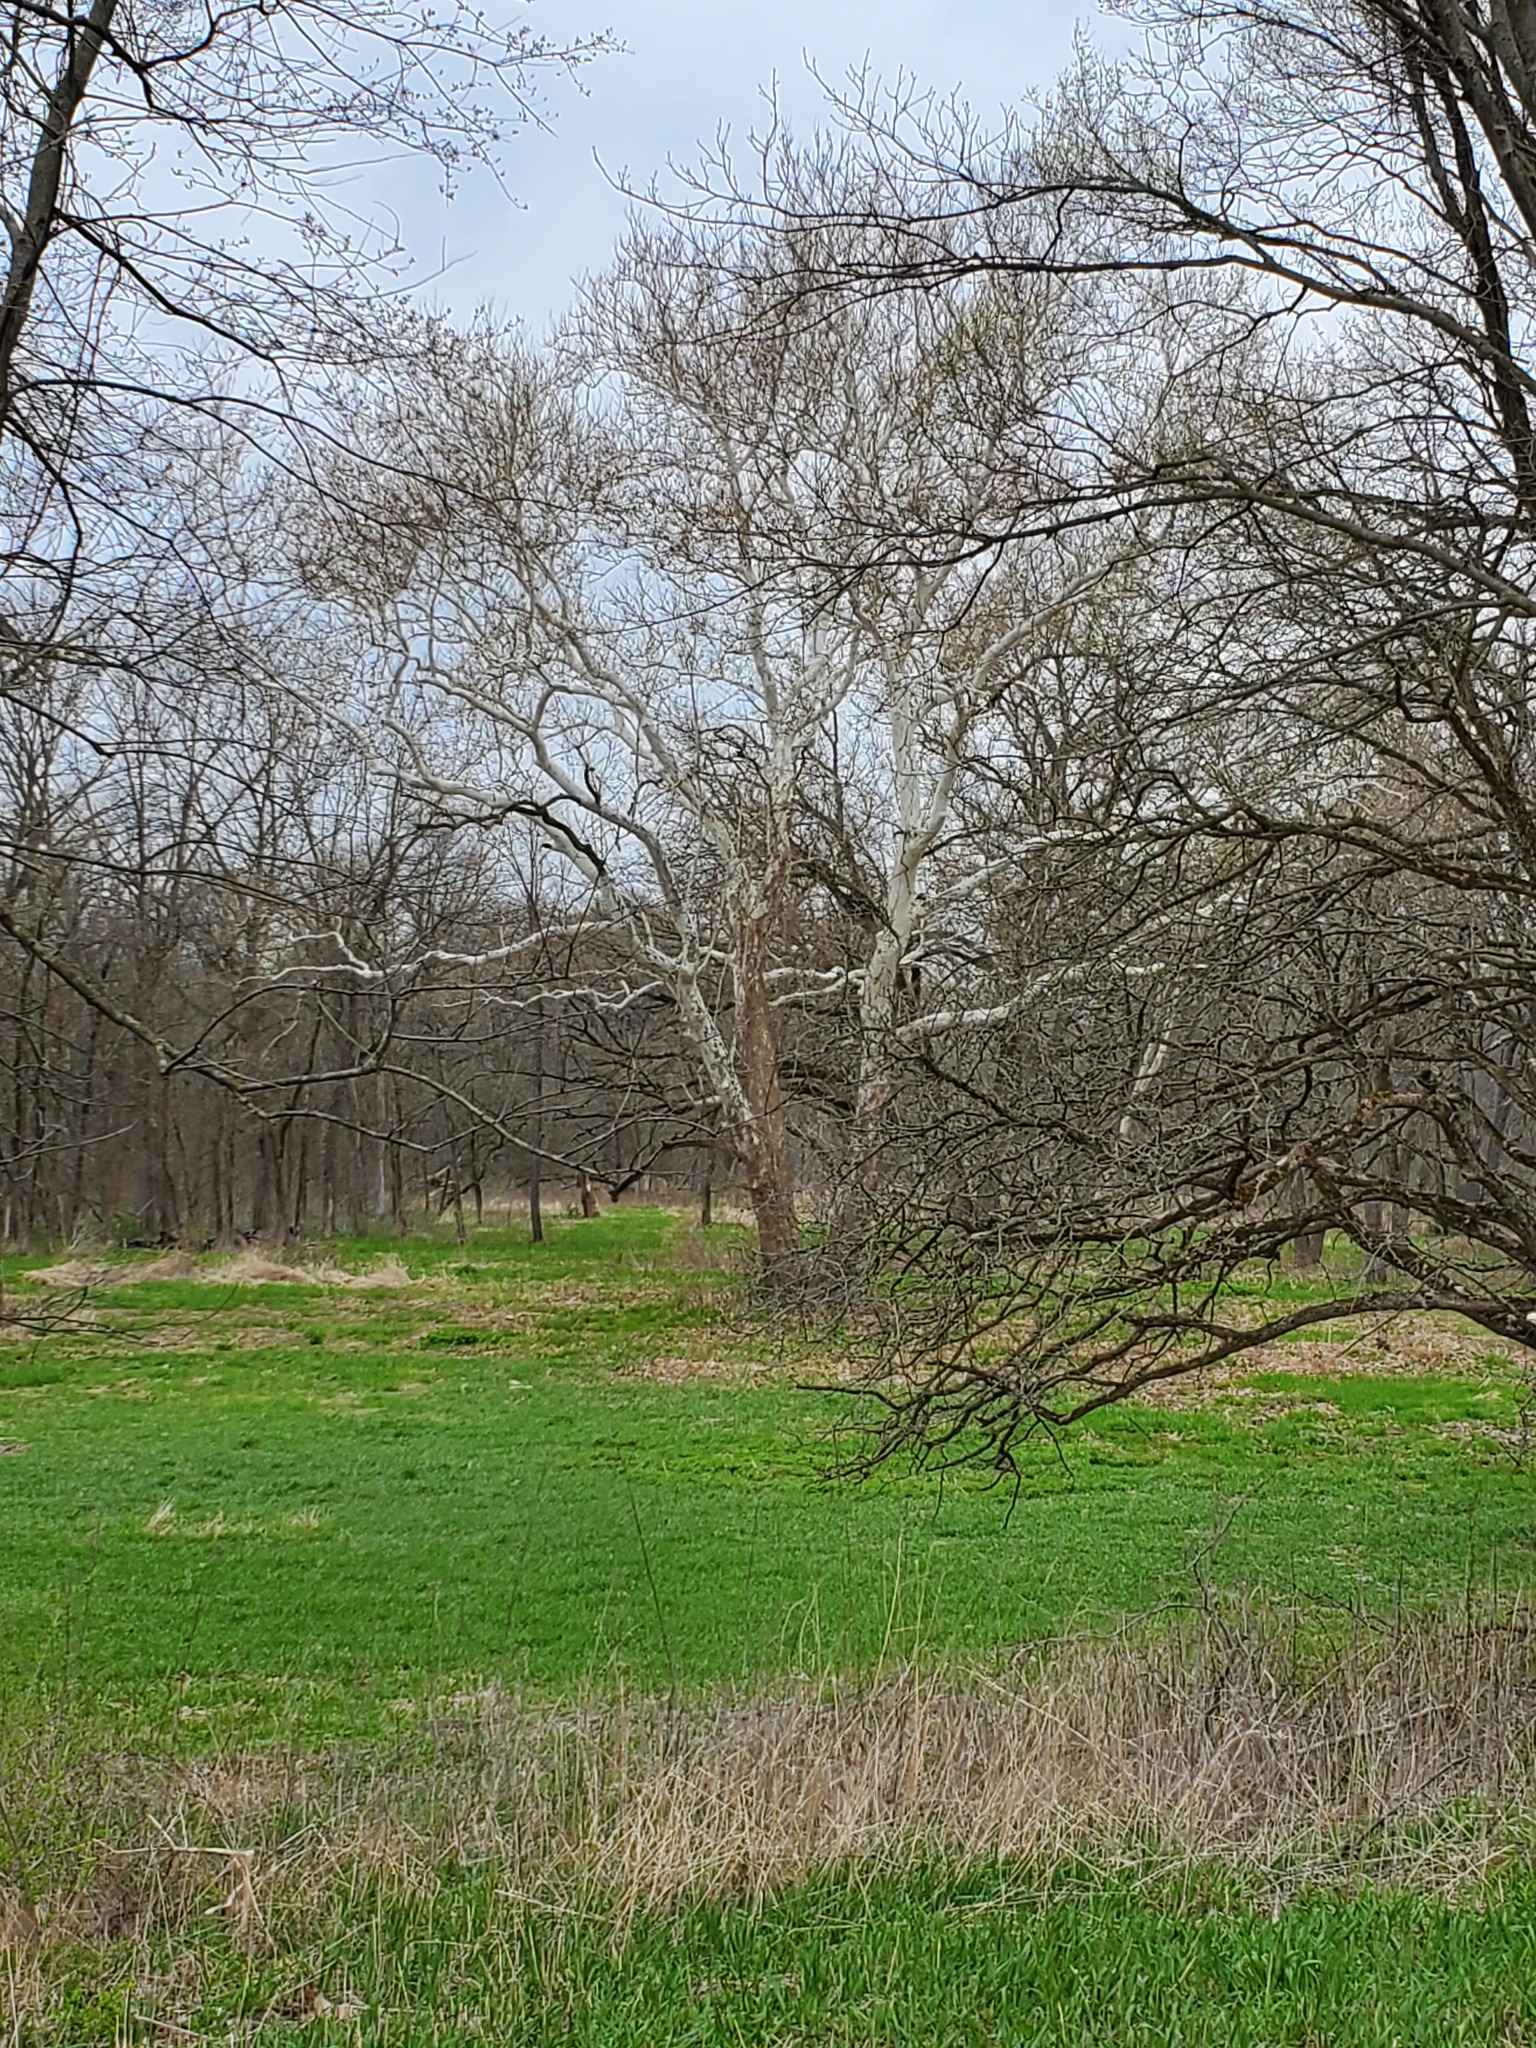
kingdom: Plantae
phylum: Tracheophyta
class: Magnoliopsida
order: Proteales
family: Platanaceae
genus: Platanus
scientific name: Platanus occidentalis
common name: American sycamore
